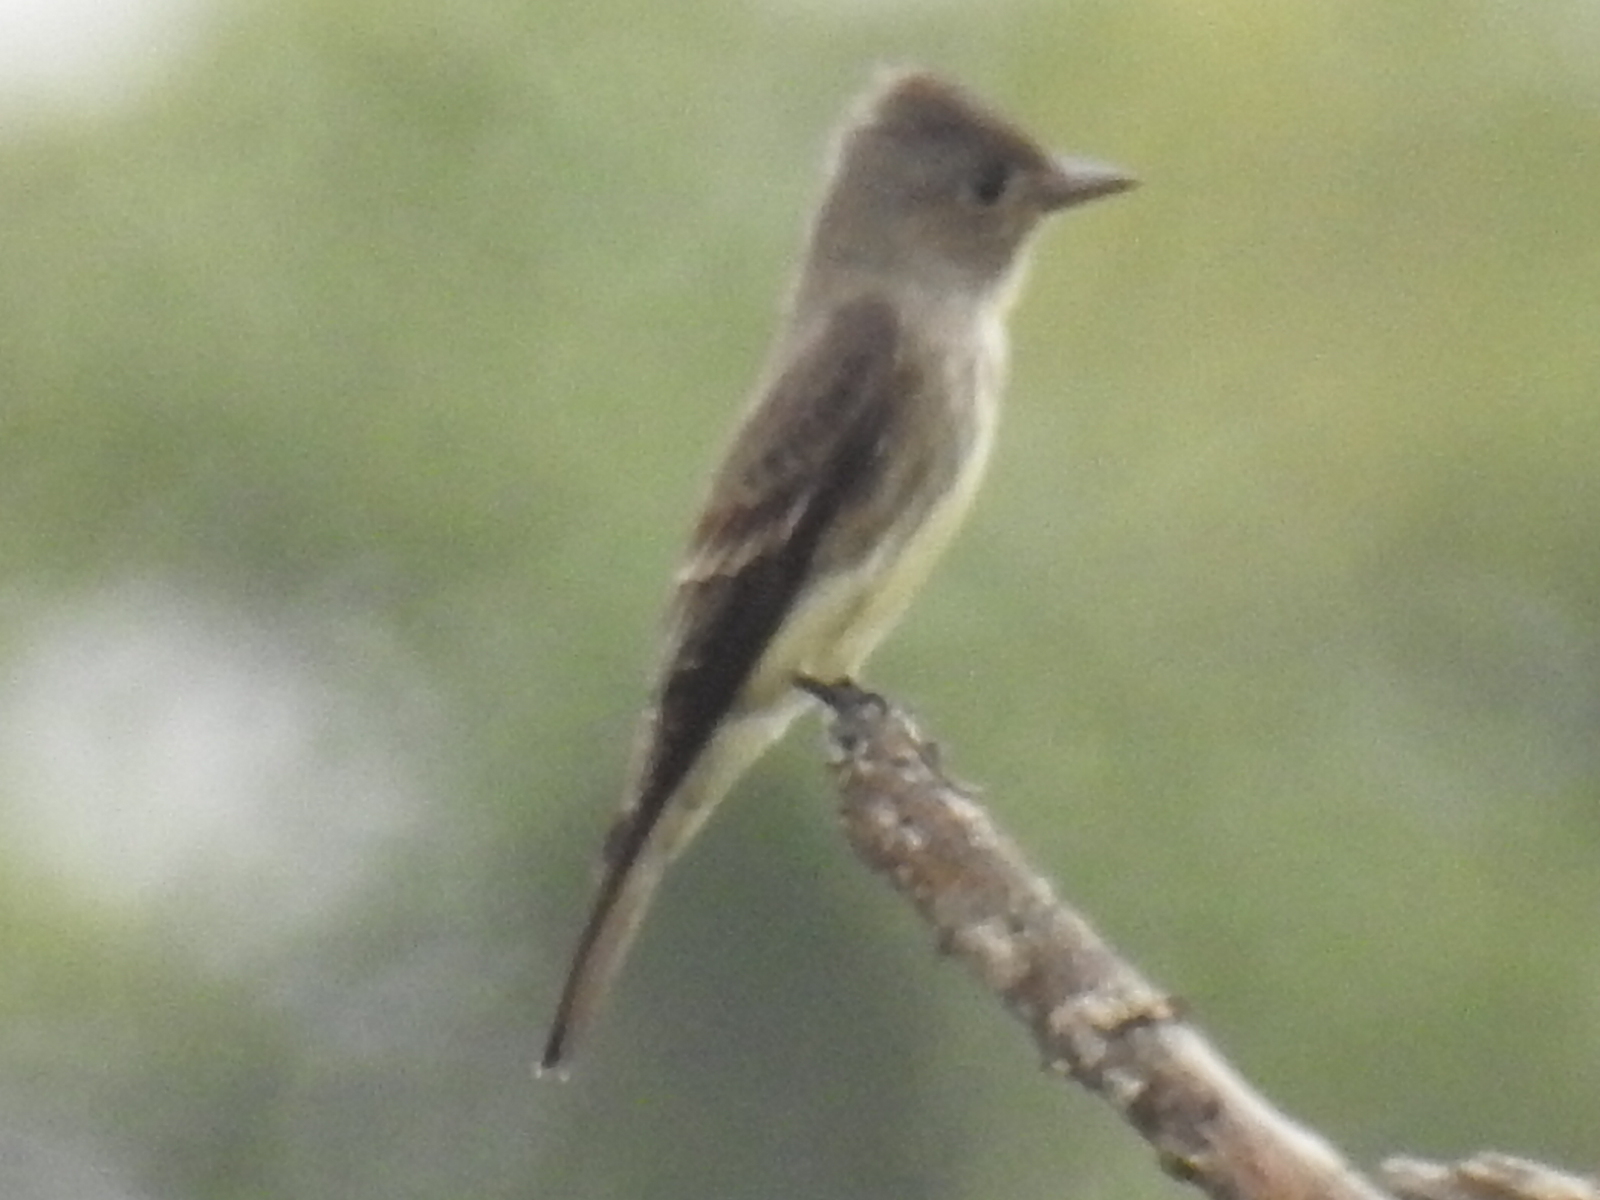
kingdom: Animalia
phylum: Chordata
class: Aves
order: Passeriformes
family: Tyrannidae
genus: Contopus
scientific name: Contopus cooperi
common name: Olive-sided flycatcher
